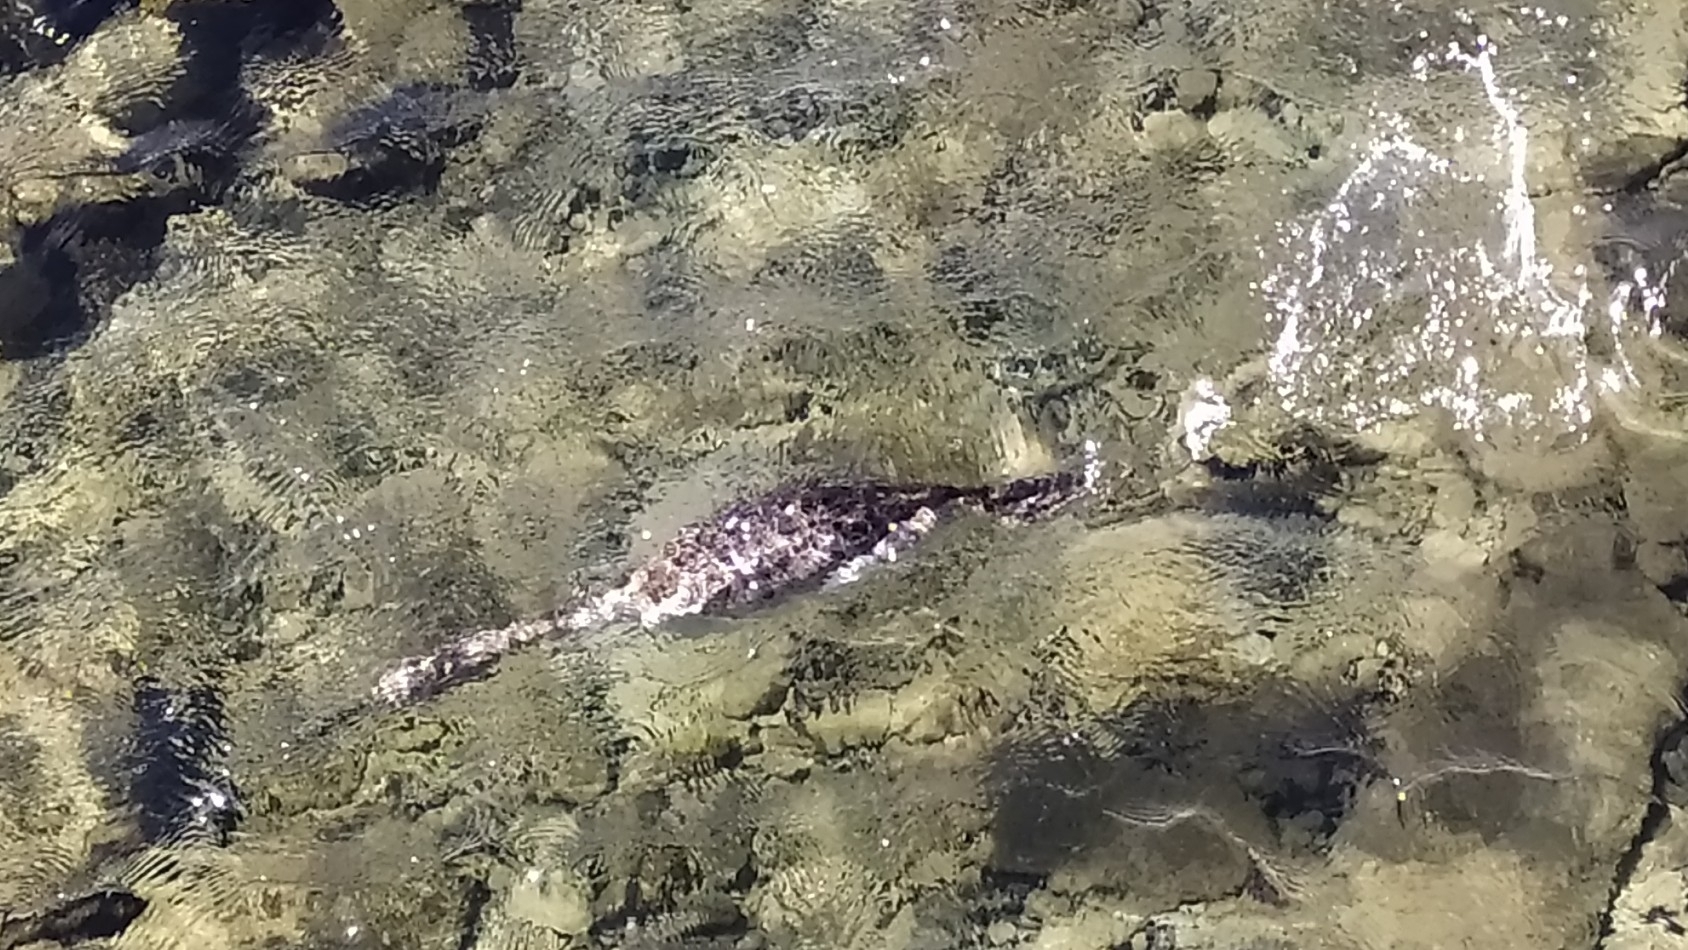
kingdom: Animalia
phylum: Chordata
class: Aves
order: Suliformes
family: Phalacrocoracidae
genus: Phalacrocorax
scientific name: Phalacrocorax aristotelis
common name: European shag
